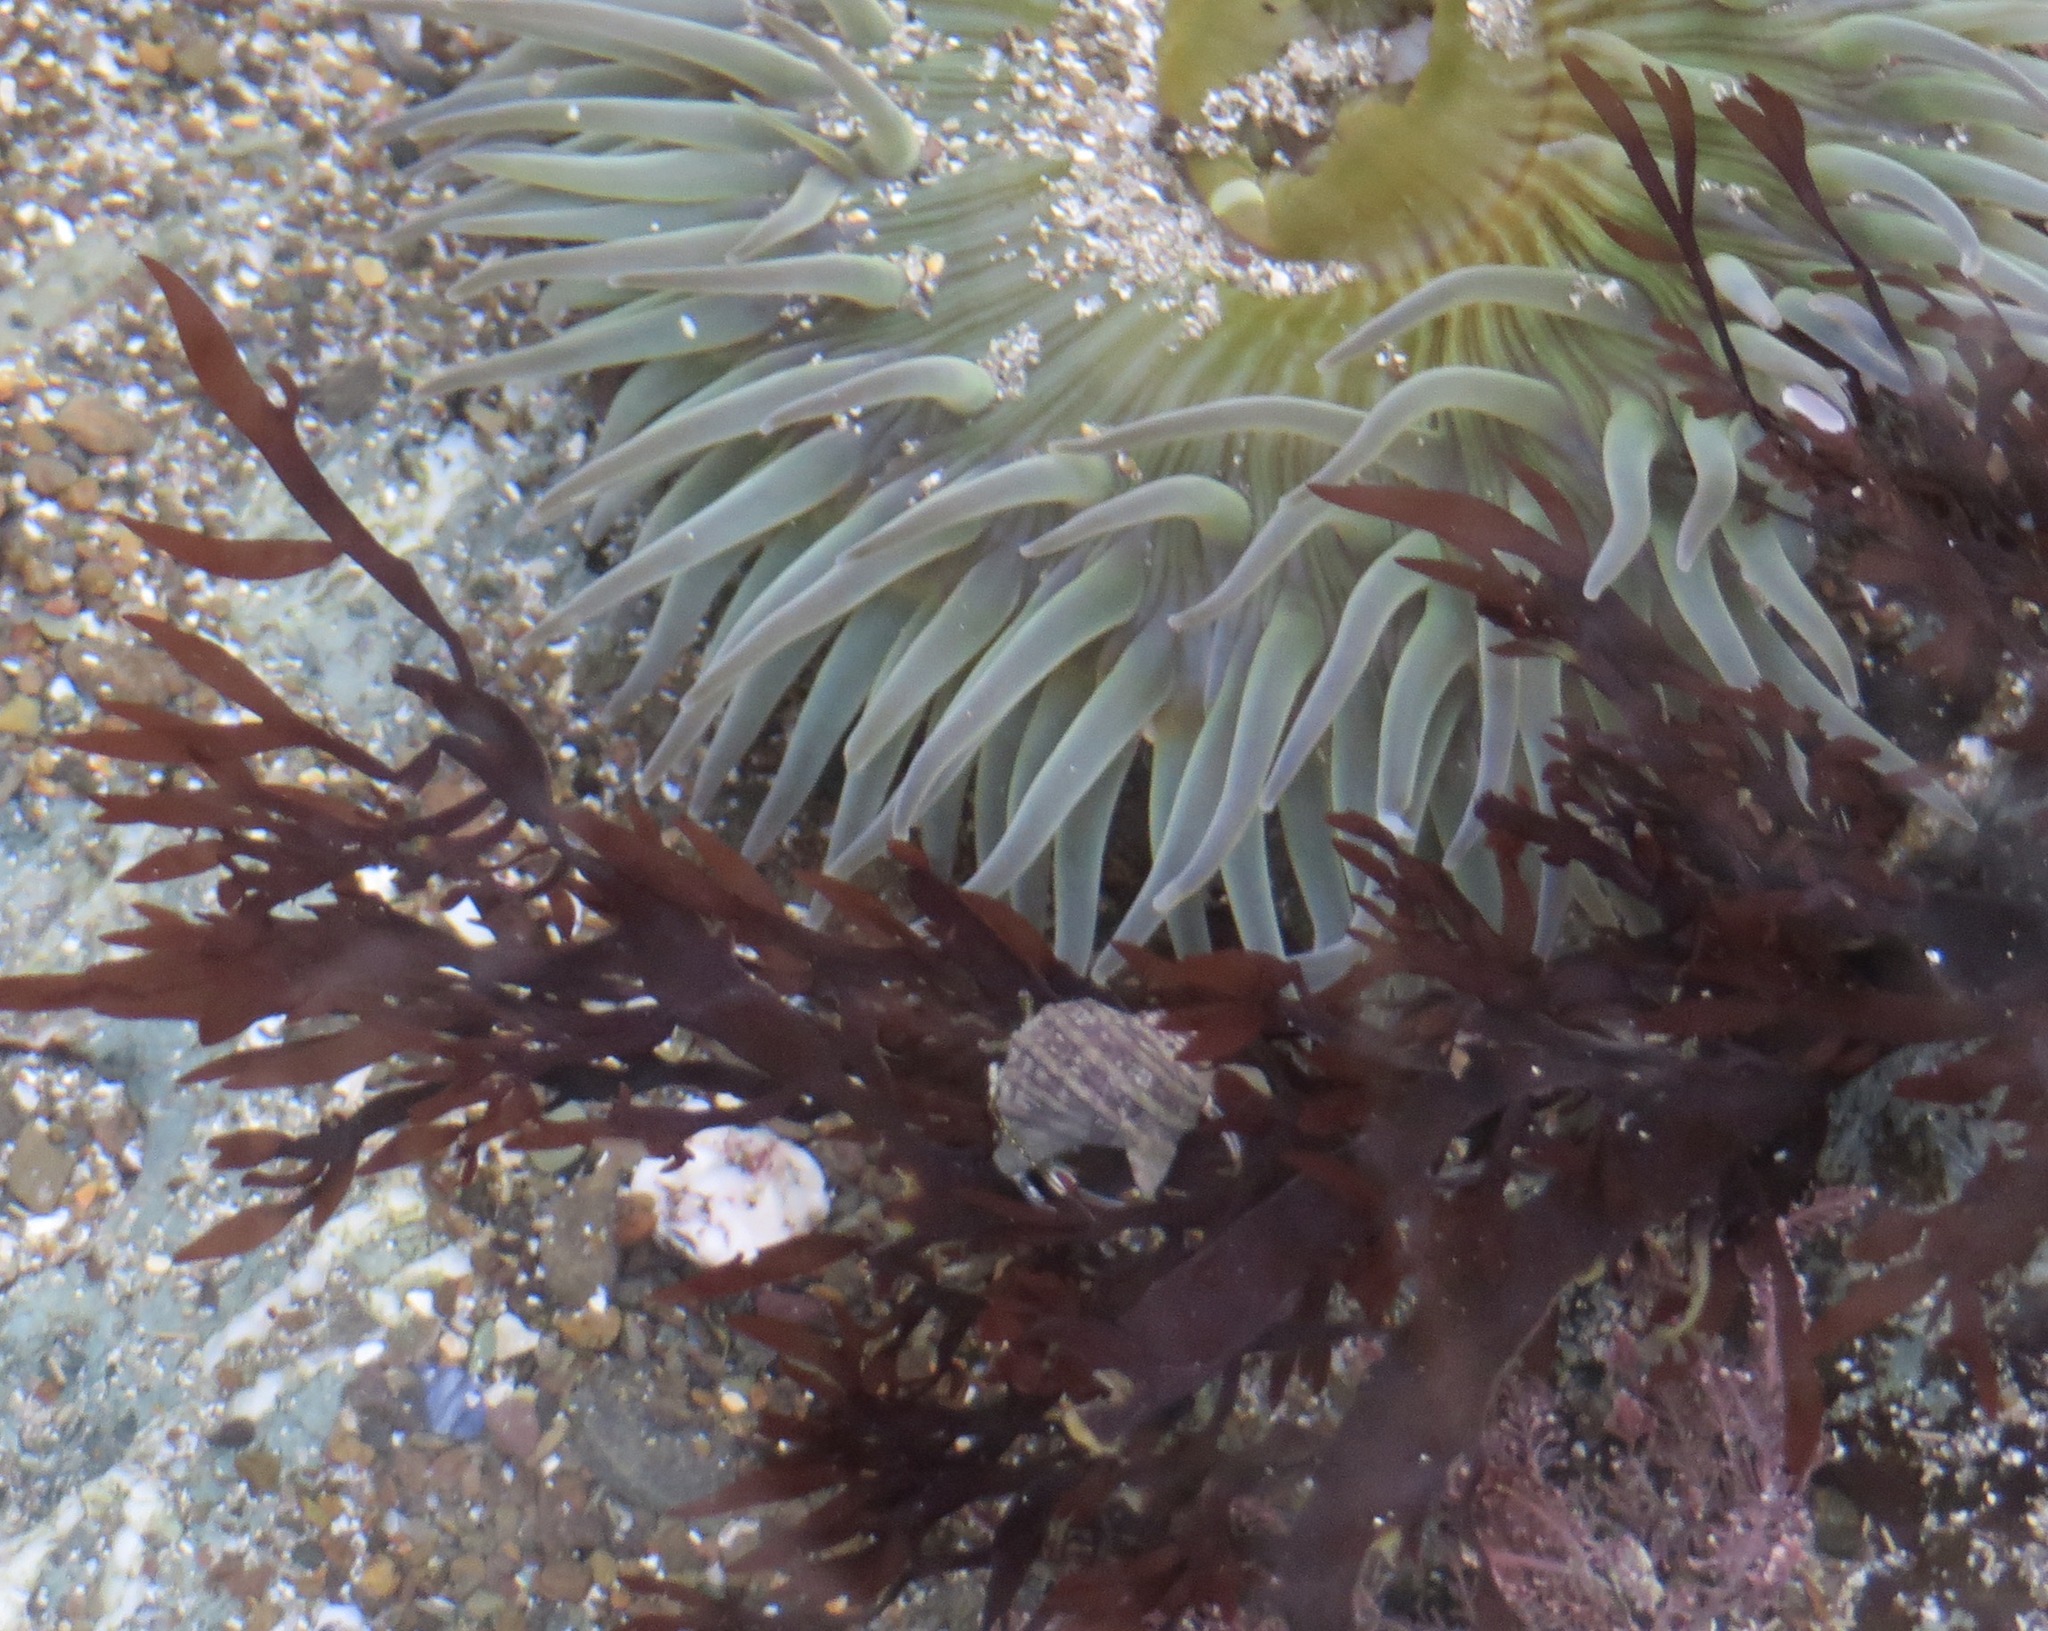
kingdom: Plantae
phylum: Rhodophyta
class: Florideophyceae
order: Halymeniales
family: Halymeniaceae
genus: Grateloupia
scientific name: Grateloupia Prionitis lanceolata
